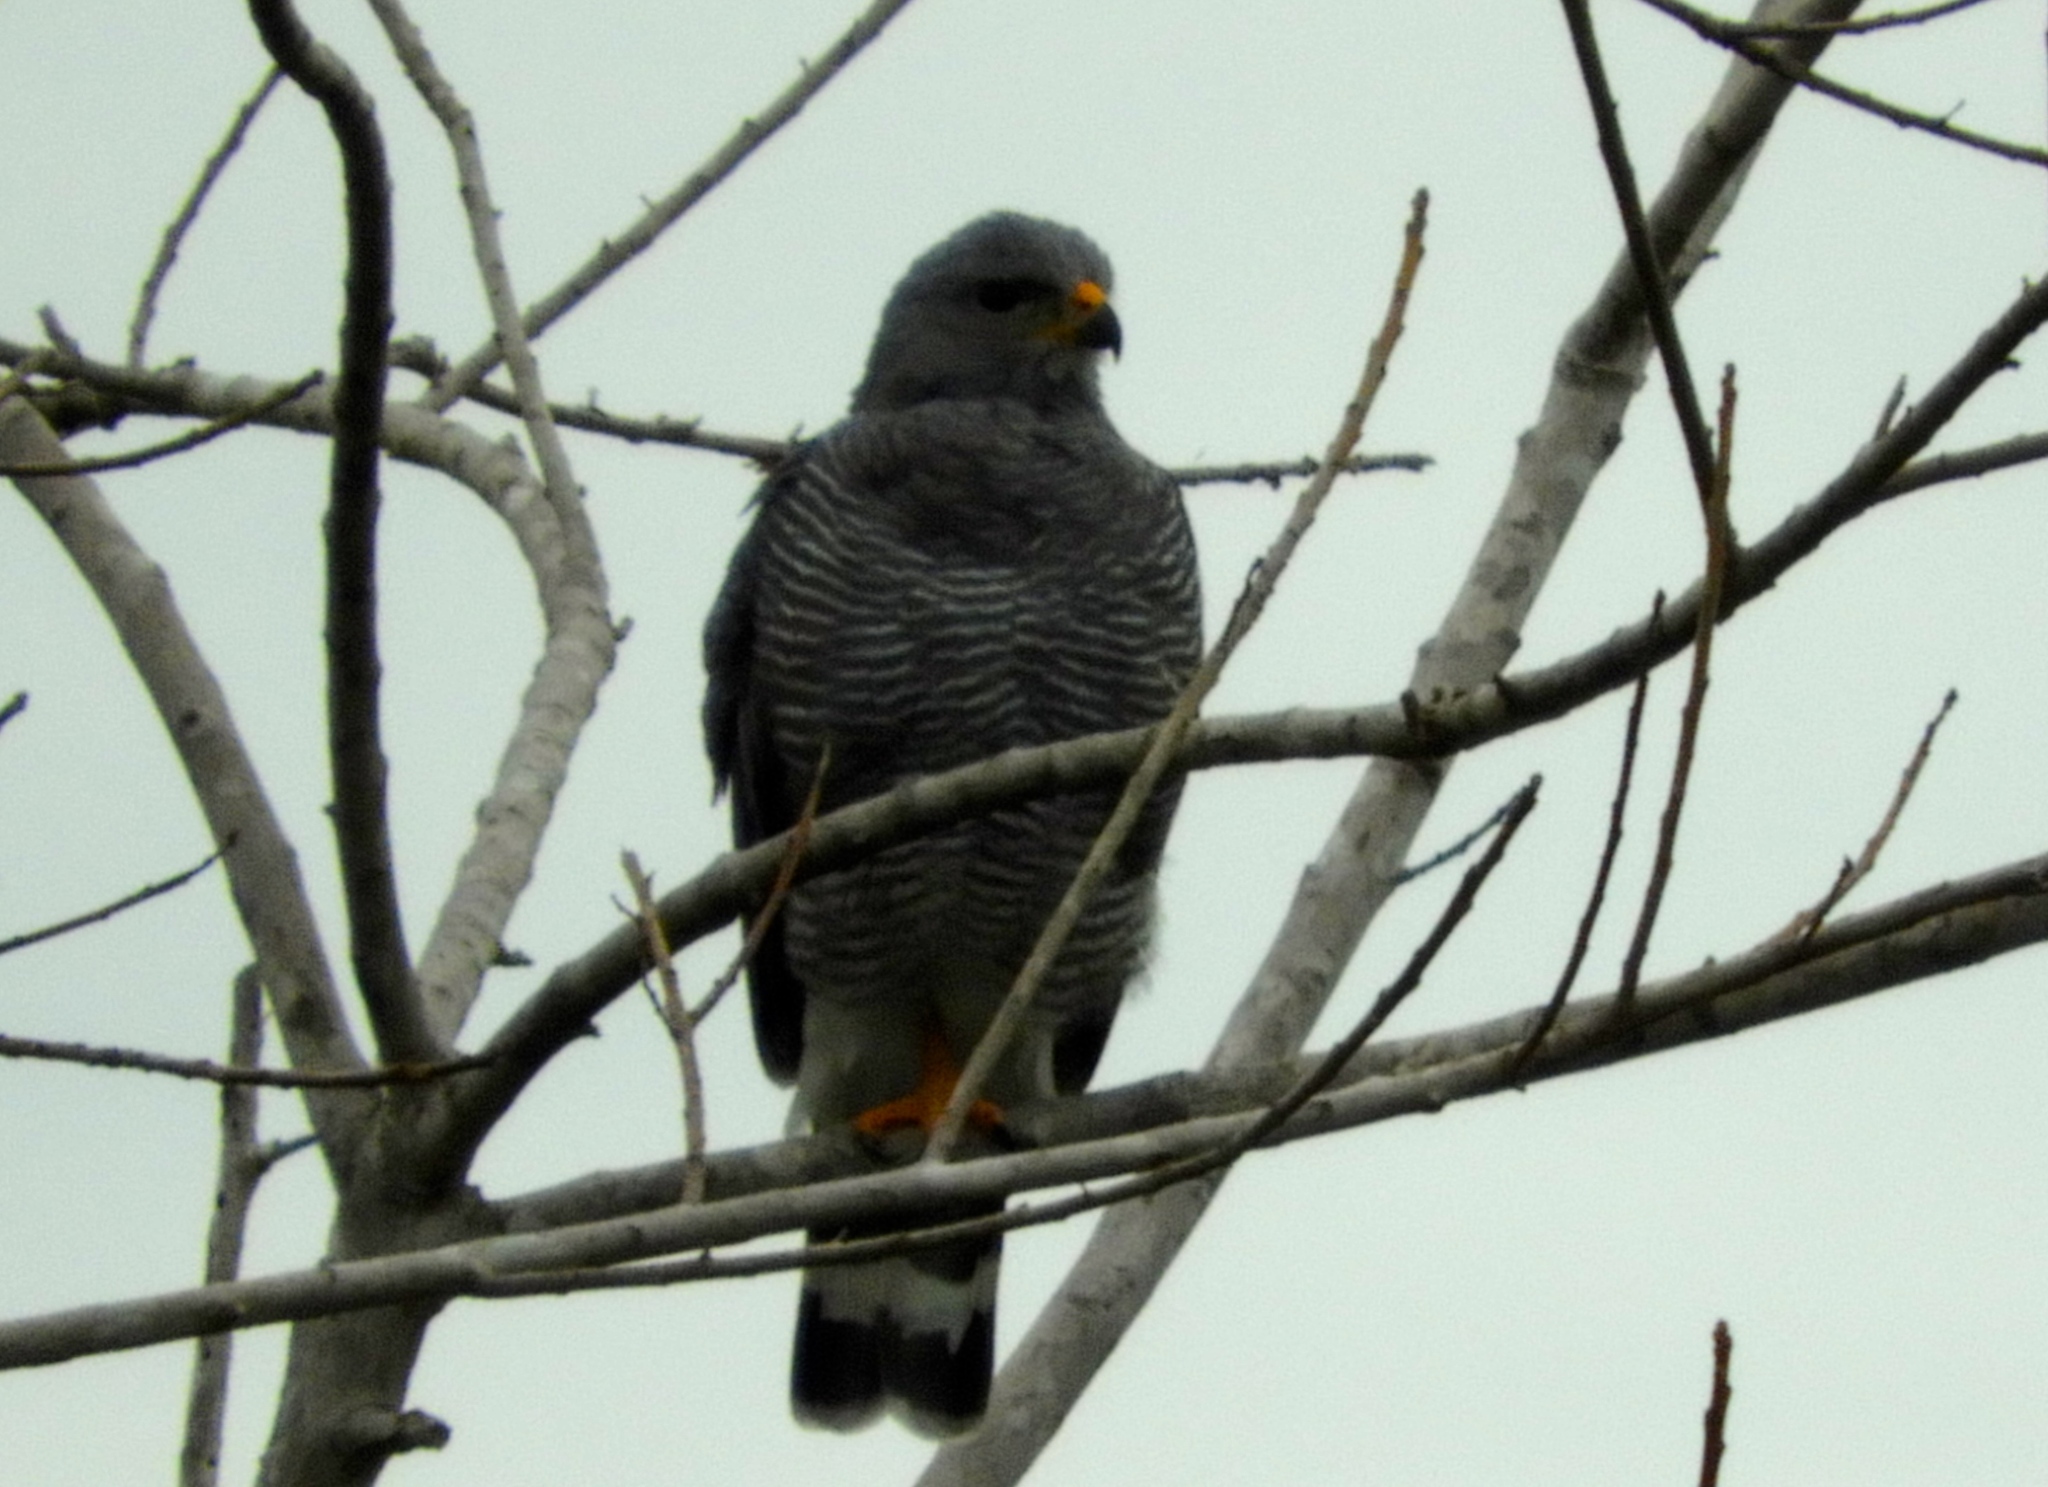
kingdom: Animalia
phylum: Chordata
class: Aves
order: Accipitriformes
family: Accipitridae
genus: Buteo
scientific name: Buteo nitidus
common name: Grey-lined hawk
